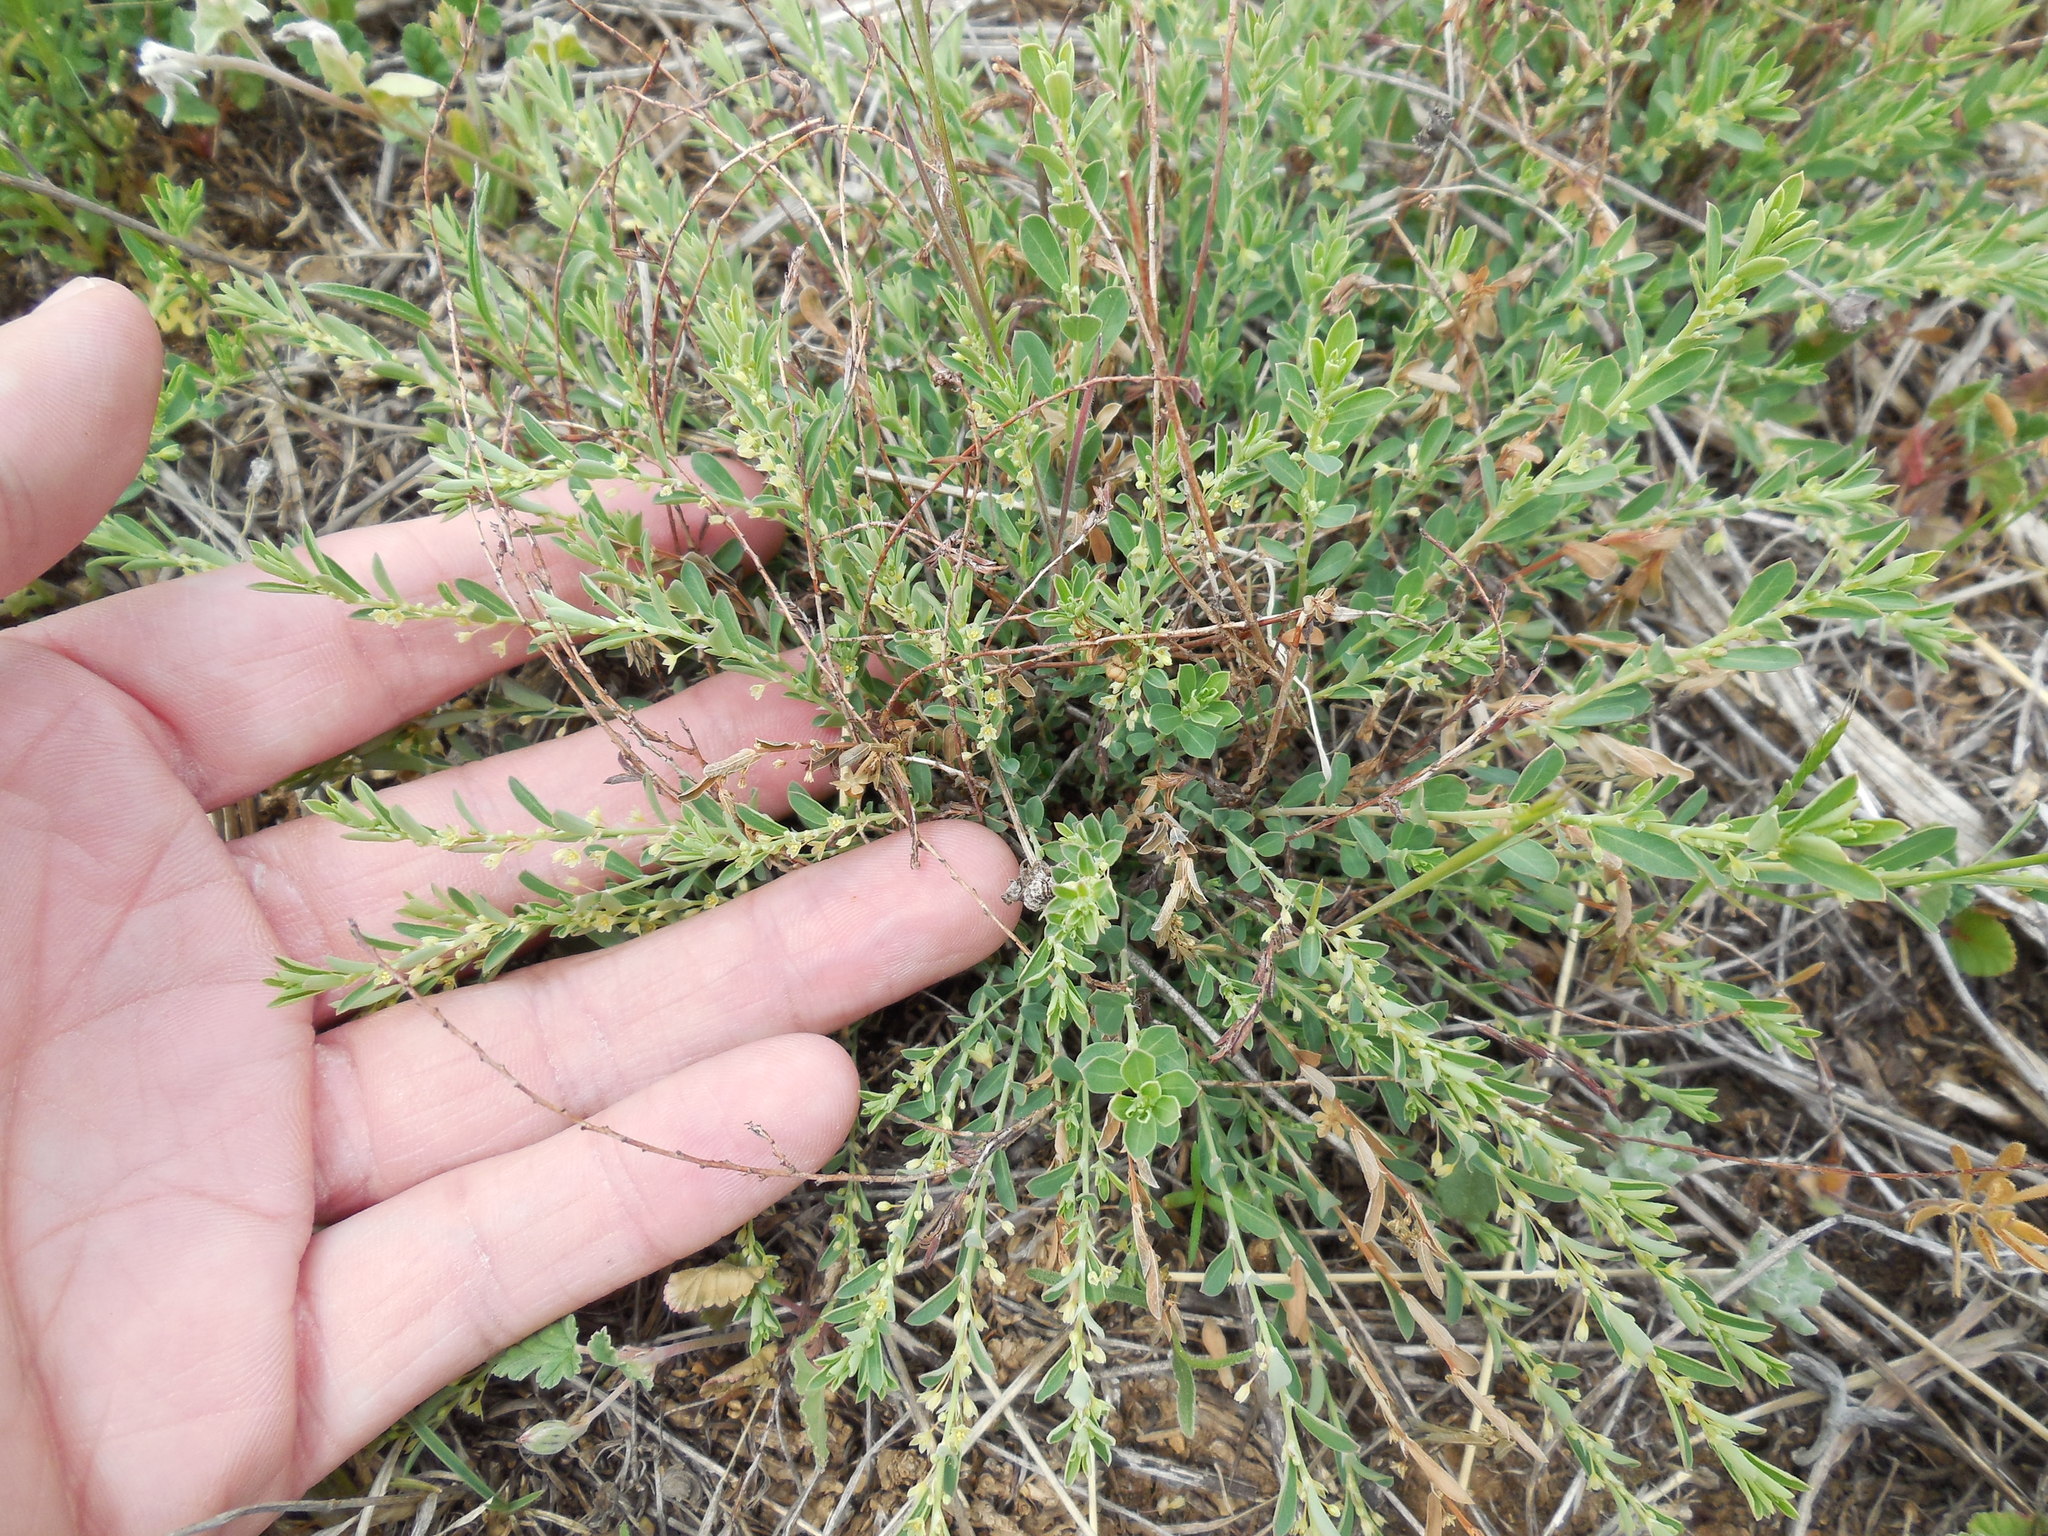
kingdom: Plantae
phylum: Tracheophyta
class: Magnoliopsida
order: Malpighiales
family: Phyllanthaceae
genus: Phyllanthus
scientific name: Phyllanthus polygonoides
